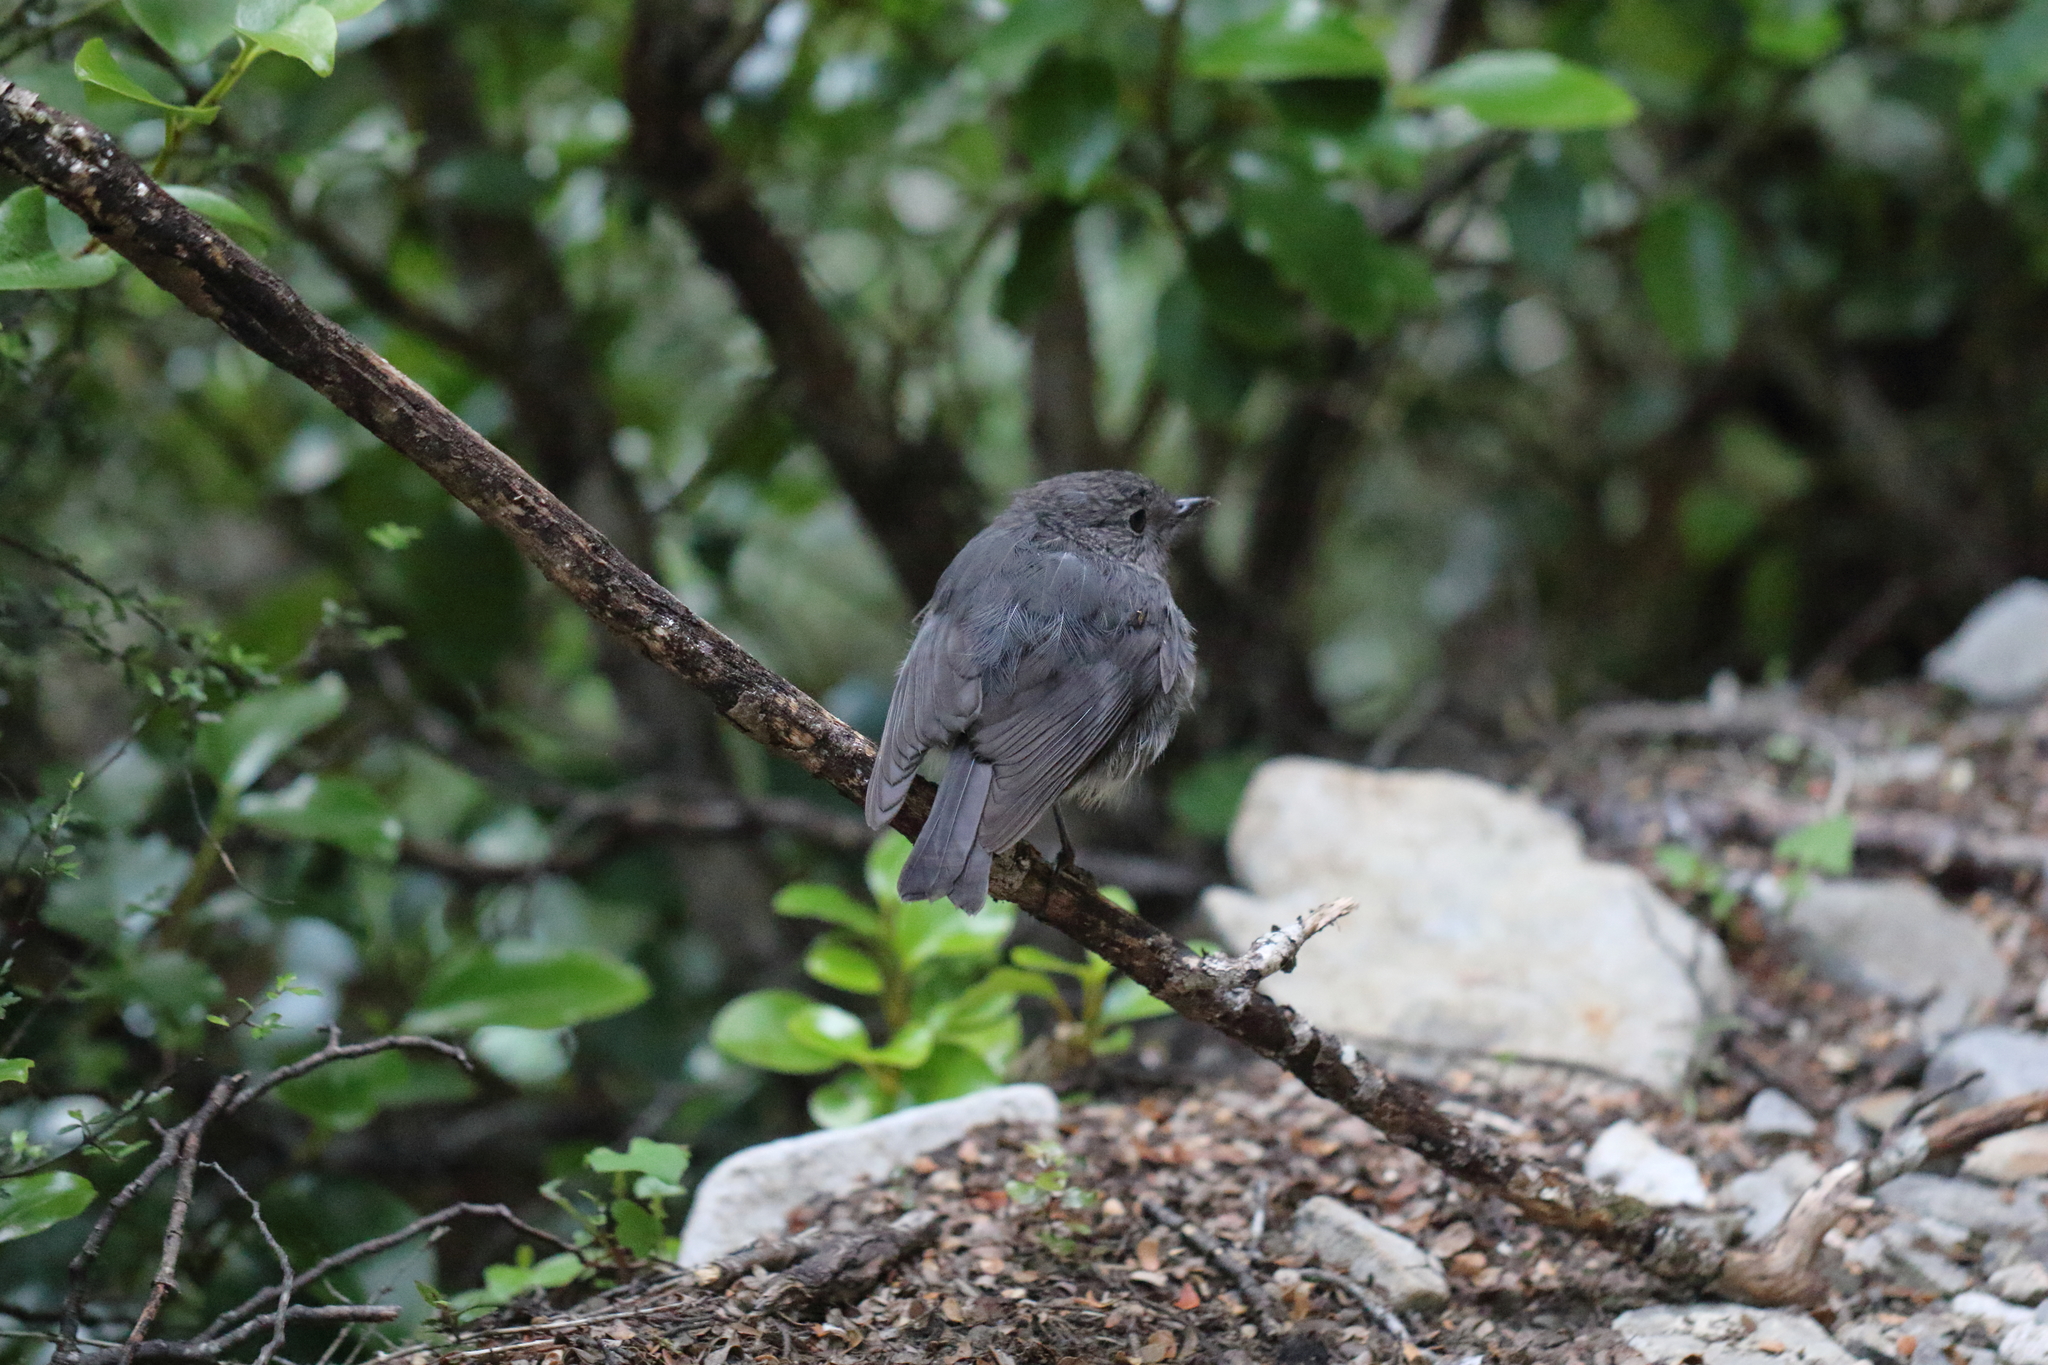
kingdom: Animalia
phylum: Chordata
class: Aves
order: Passeriformes
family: Petroicidae
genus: Petroica
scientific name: Petroica australis
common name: New zealand robin
